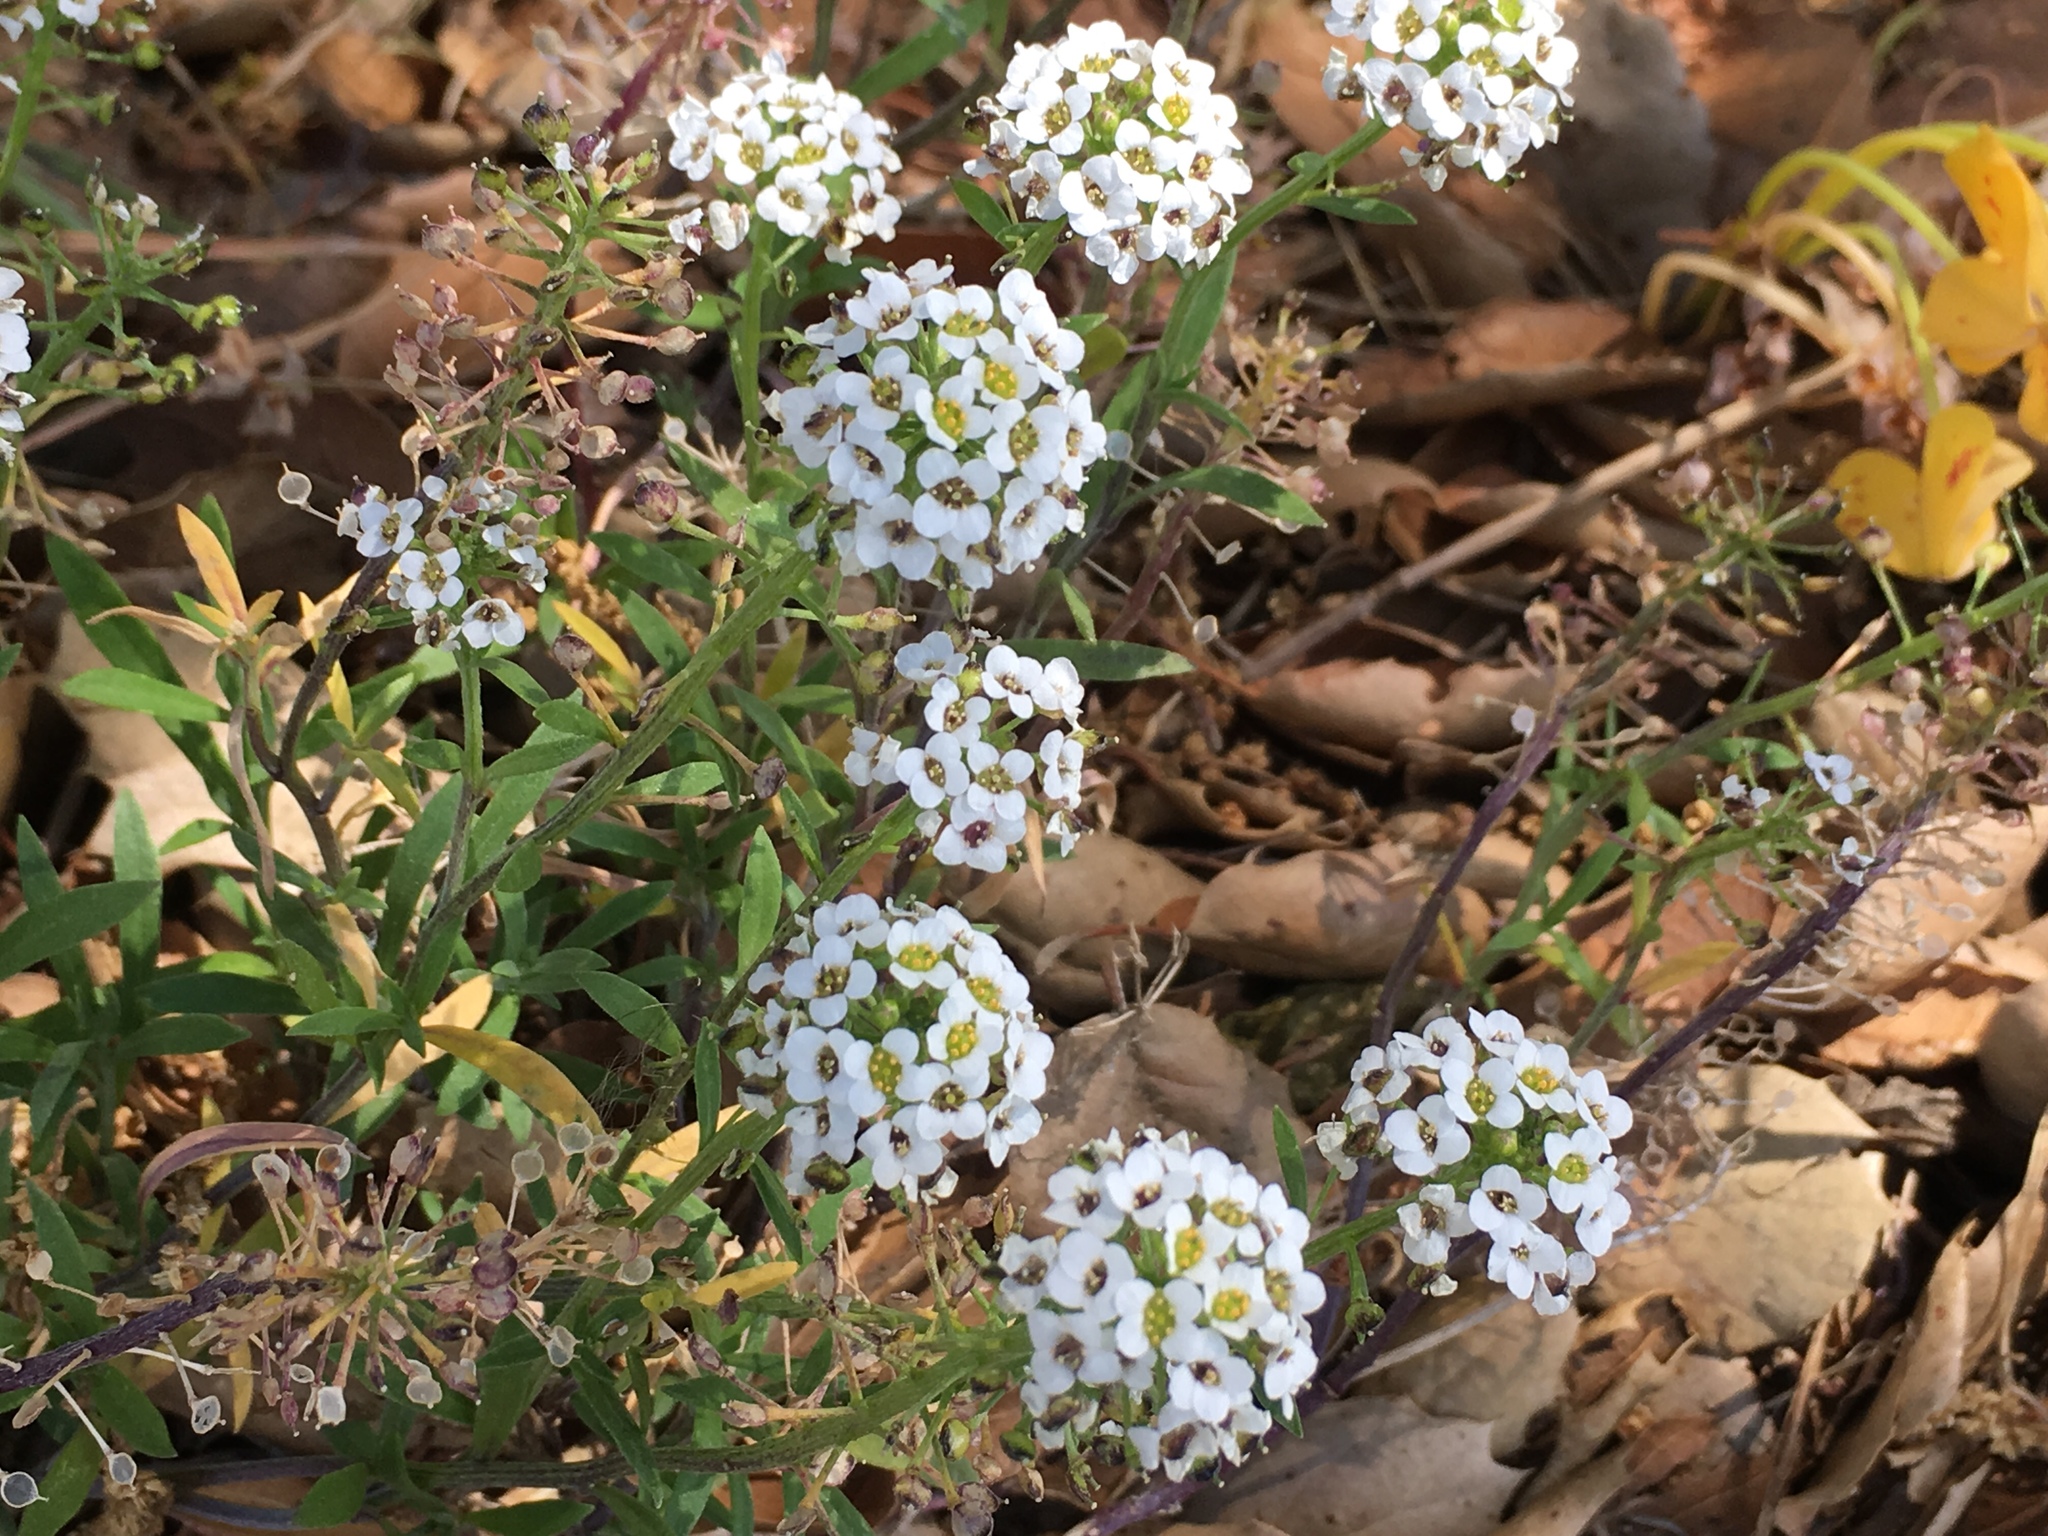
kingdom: Plantae
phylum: Tracheophyta
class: Magnoliopsida
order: Brassicales
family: Brassicaceae
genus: Lobularia
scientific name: Lobularia maritima
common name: Sweet alison
